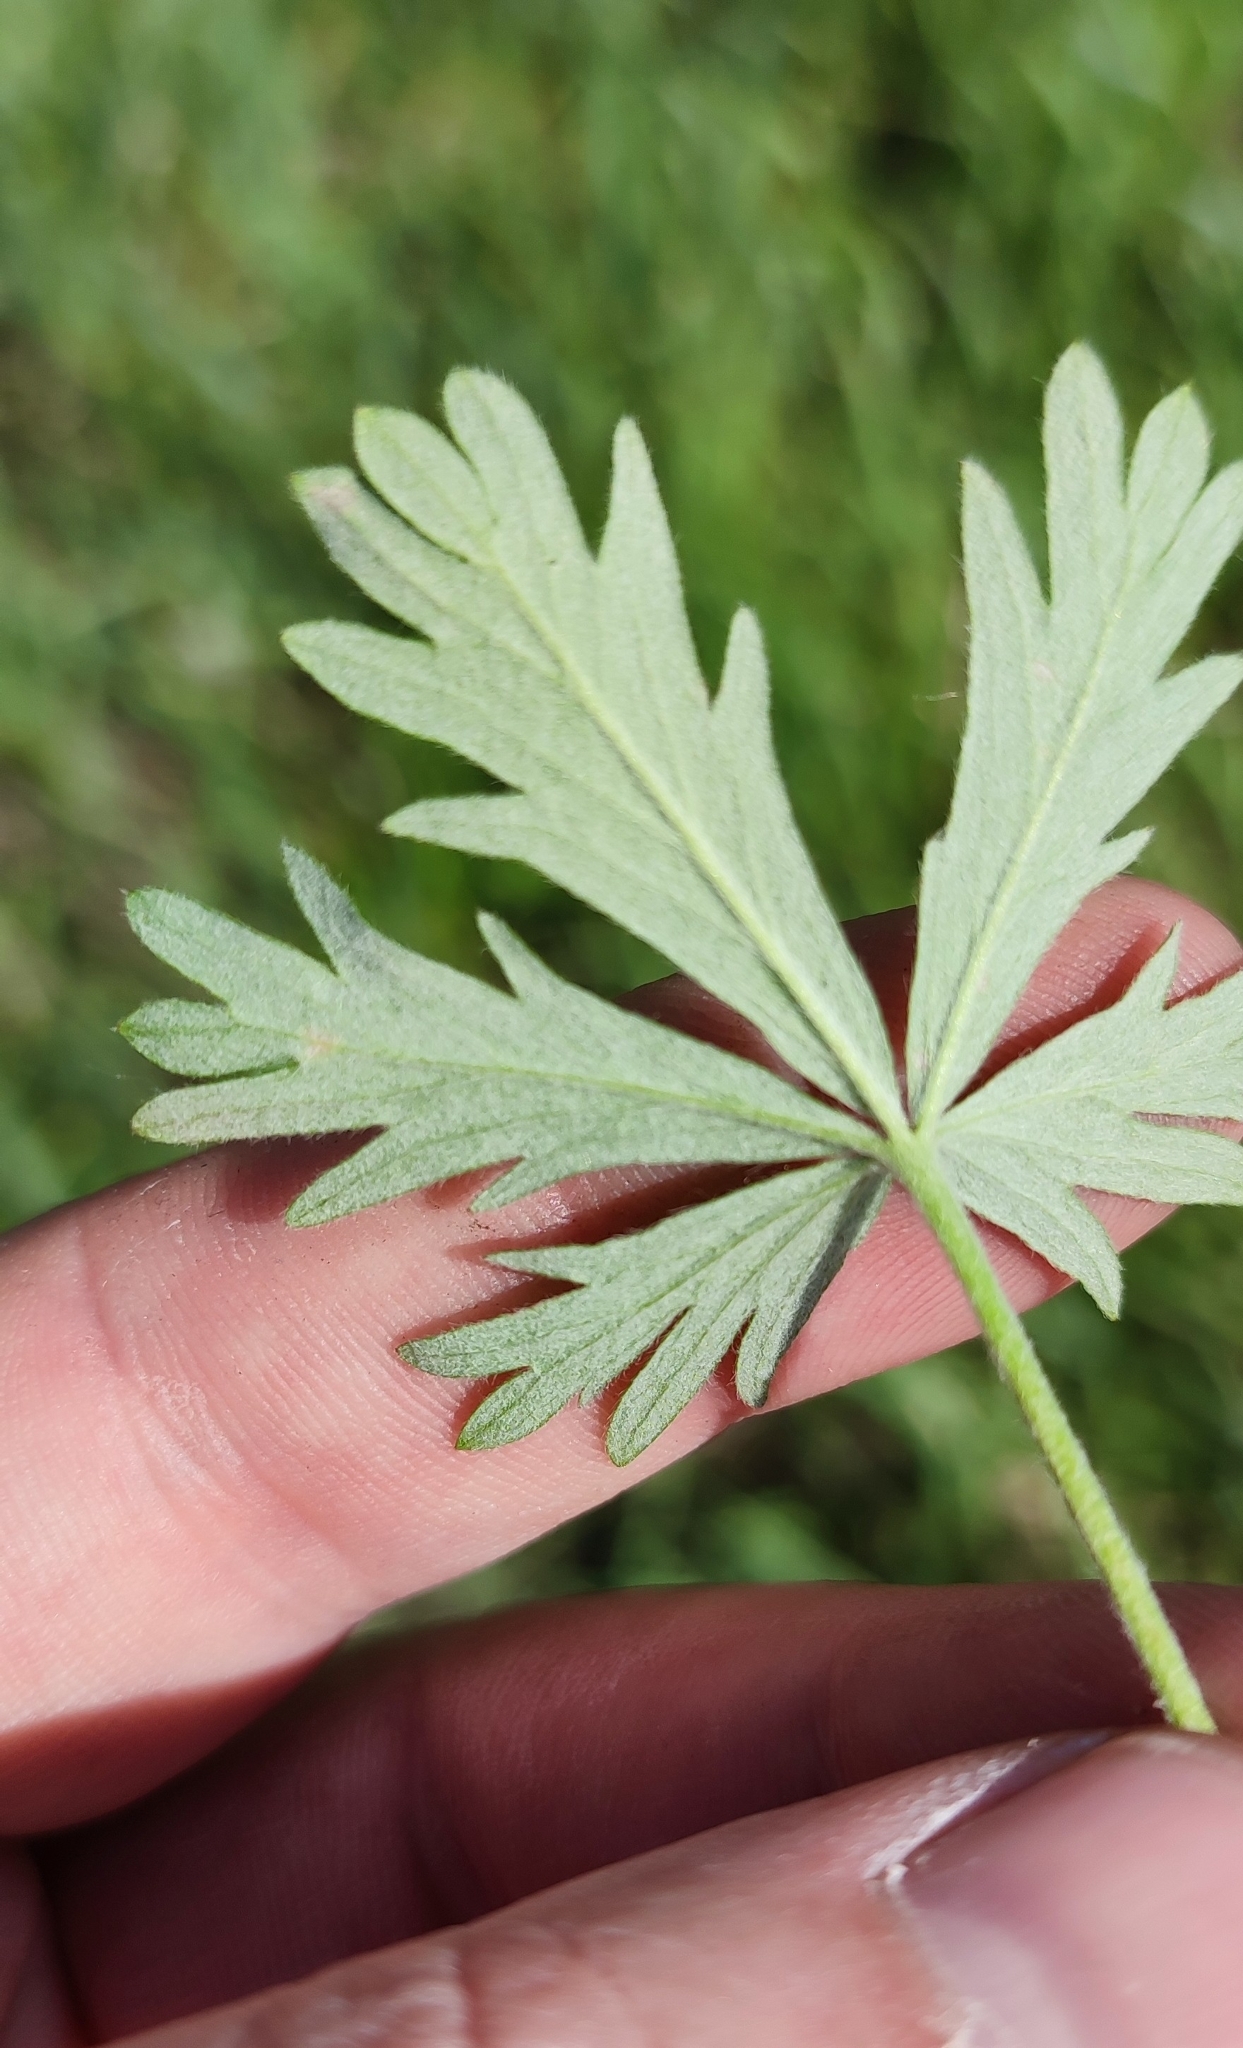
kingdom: Plantae
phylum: Tracheophyta
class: Magnoliopsida
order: Rosales
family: Rosaceae
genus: Potentilla
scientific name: Potentilla argentea
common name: Hoary cinquefoil
